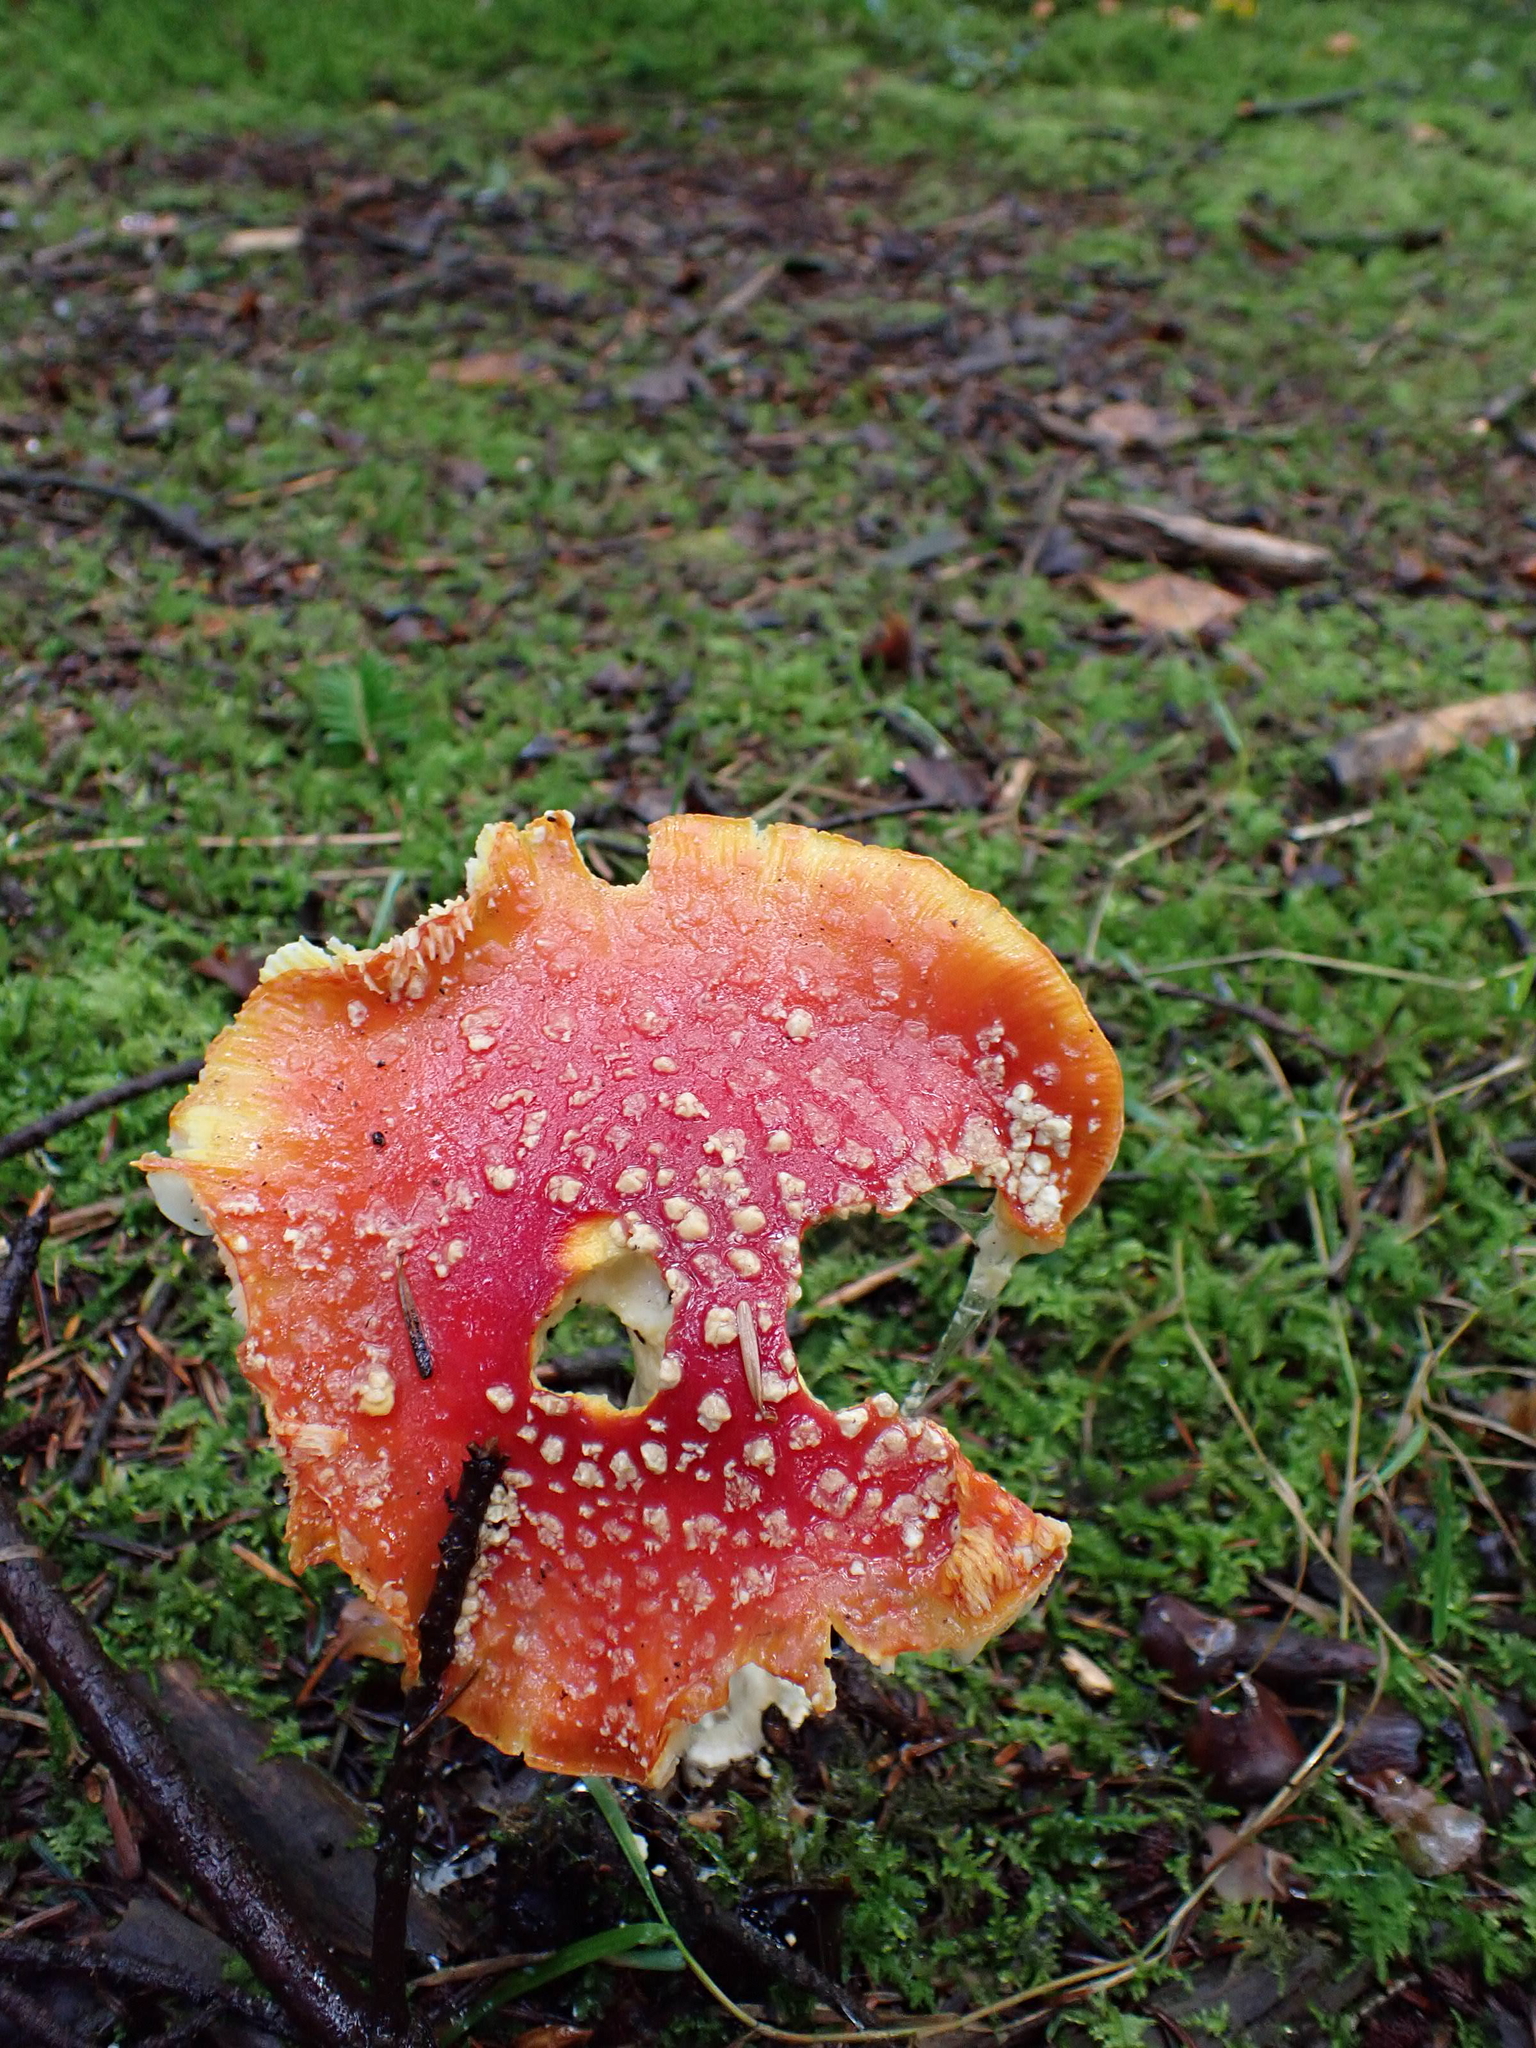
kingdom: Fungi
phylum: Basidiomycota
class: Agaricomycetes
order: Agaricales
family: Amanitaceae
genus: Amanita
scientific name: Amanita muscaria
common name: Fly agaric
